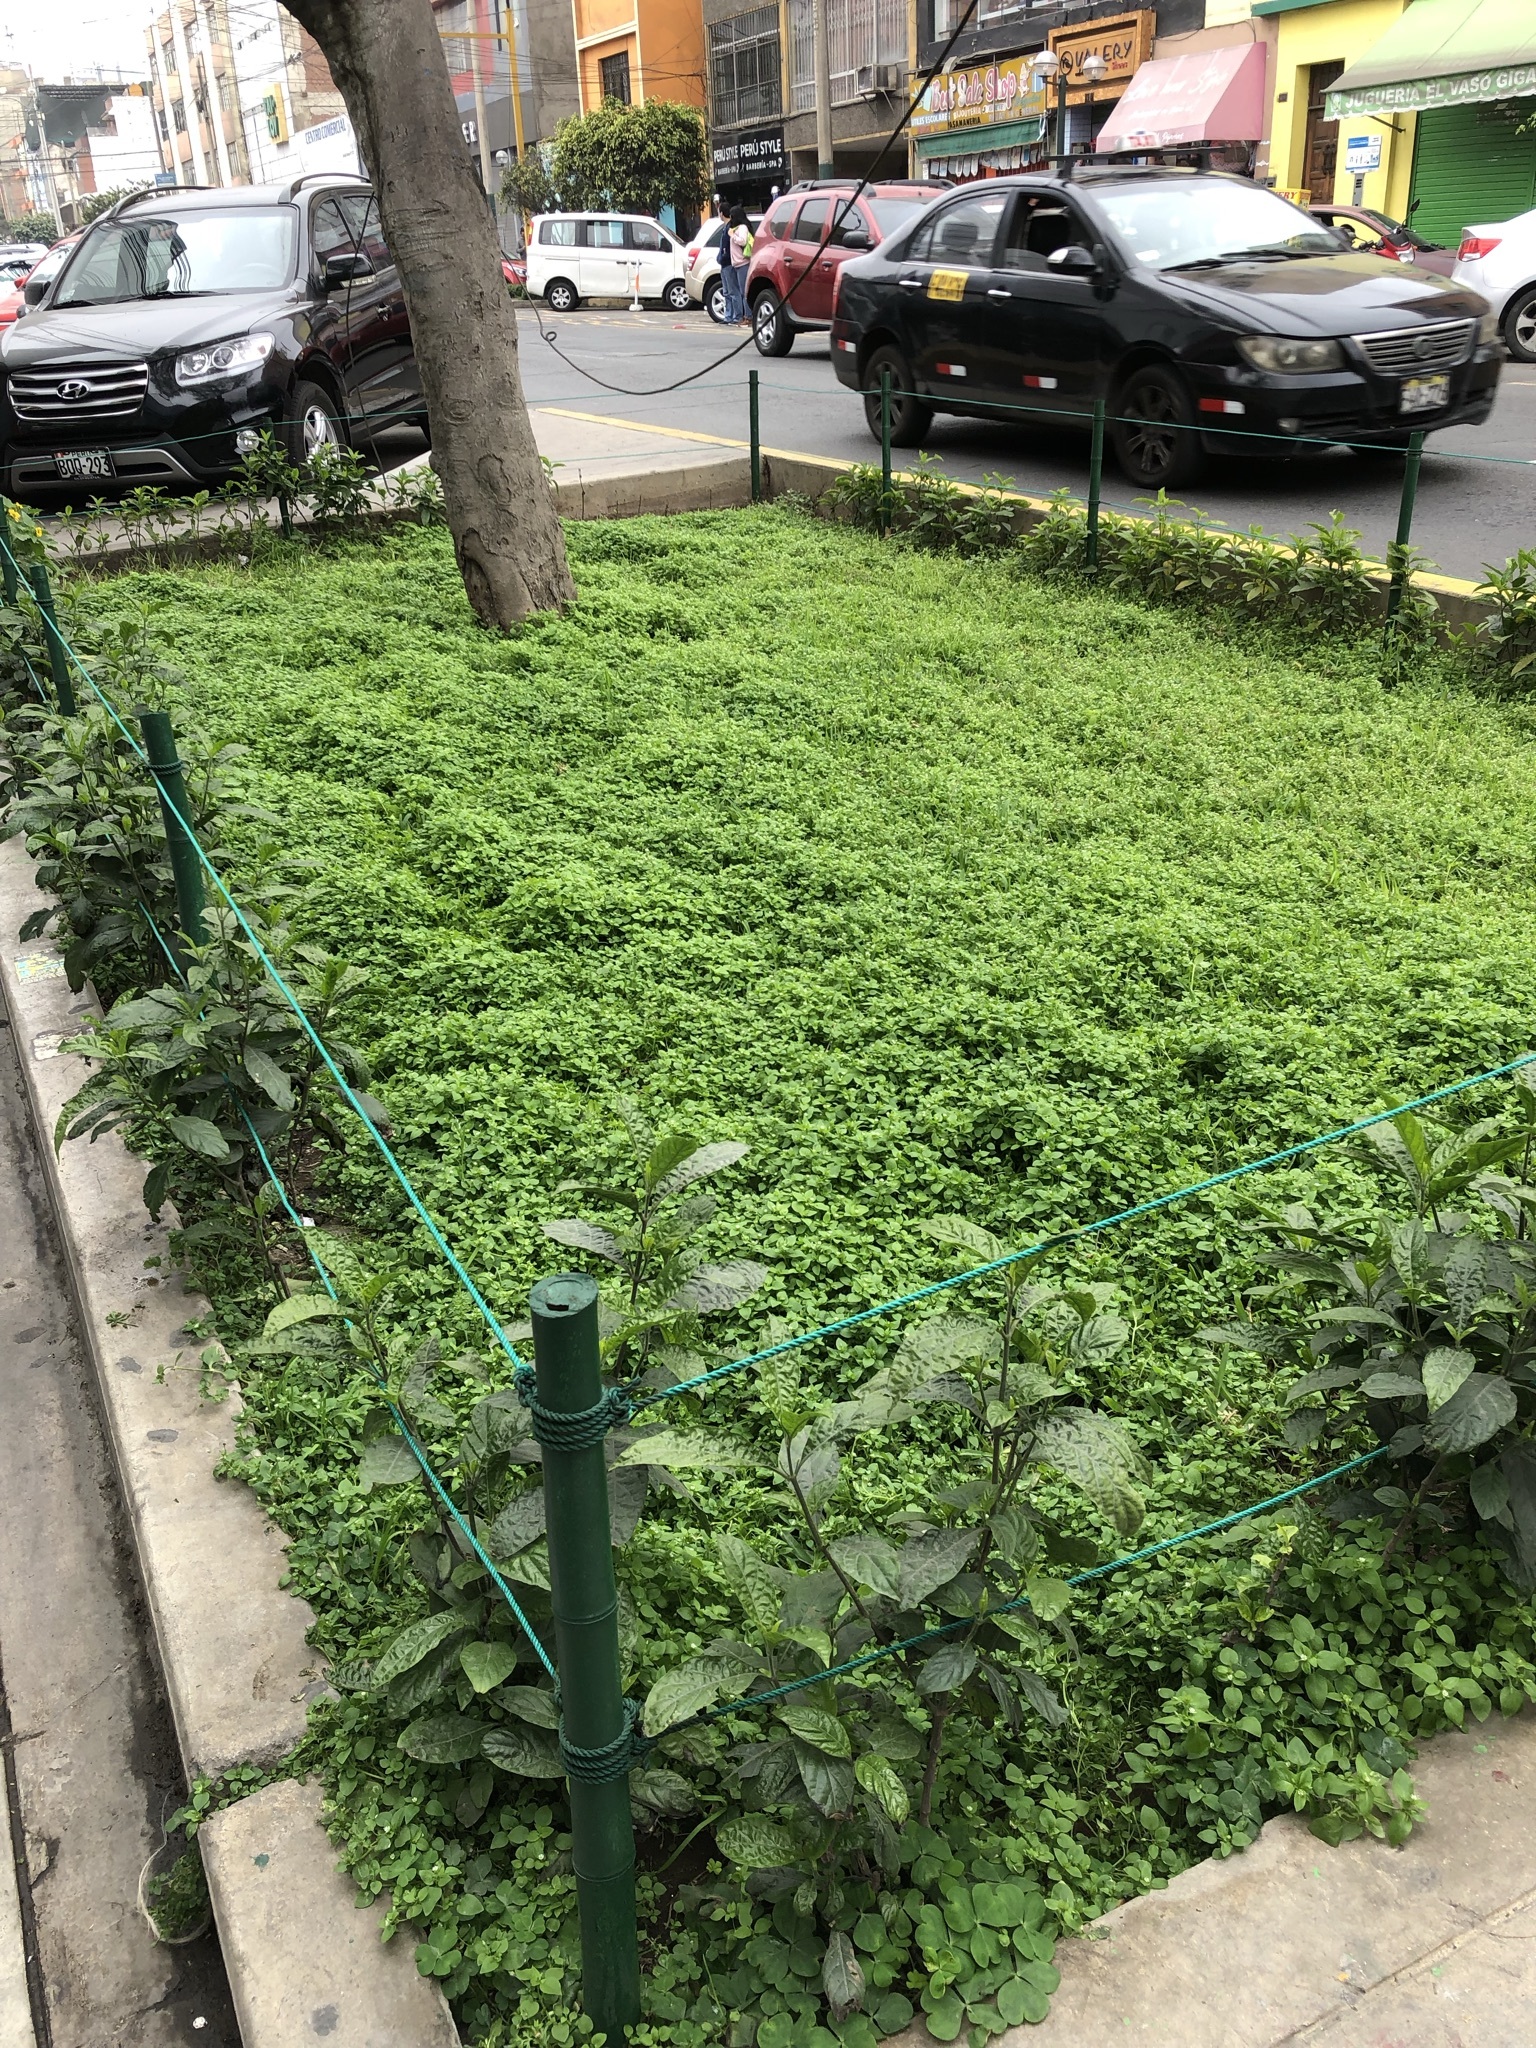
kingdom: Plantae
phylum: Tracheophyta
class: Magnoliopsida
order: Caryophyllales
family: Caryophyllaceae
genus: Stellaria
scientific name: Stellaria media
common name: Common chickweed
